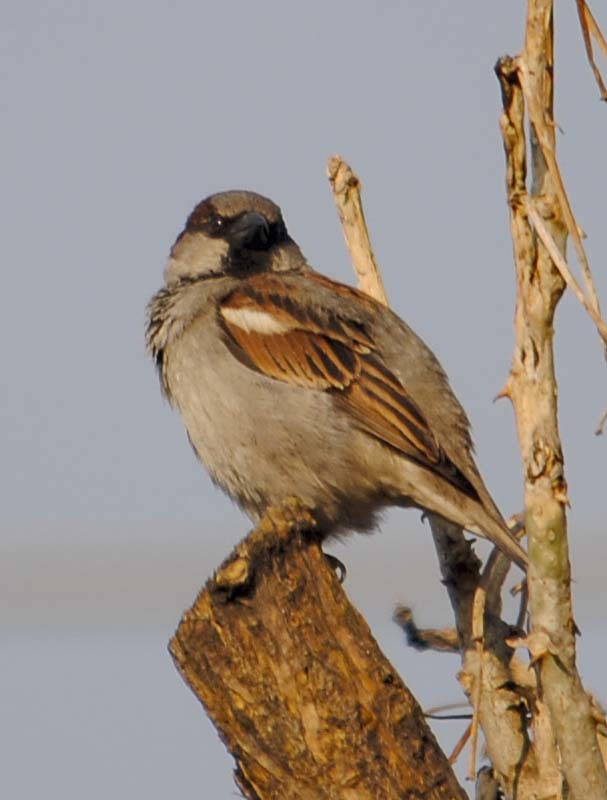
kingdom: Animalia
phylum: Chordata
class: Aves
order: Passeriformes
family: Passeridae
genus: Passer
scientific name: Passer domesticus
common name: House sparrow
